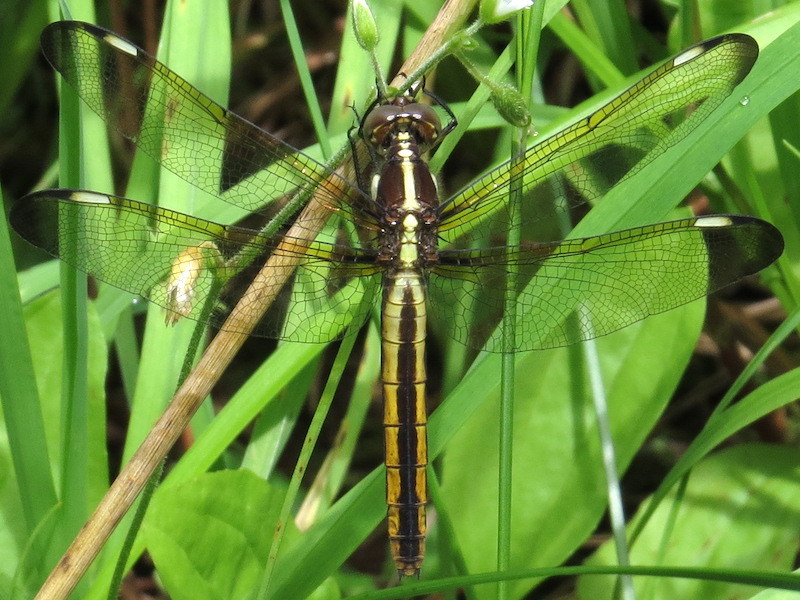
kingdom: Animalia
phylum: Arthropoda
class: Insecta
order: Odonata
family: Libellulidae
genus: Libellula
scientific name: Libellula cyanea
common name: Spangled skimmer
